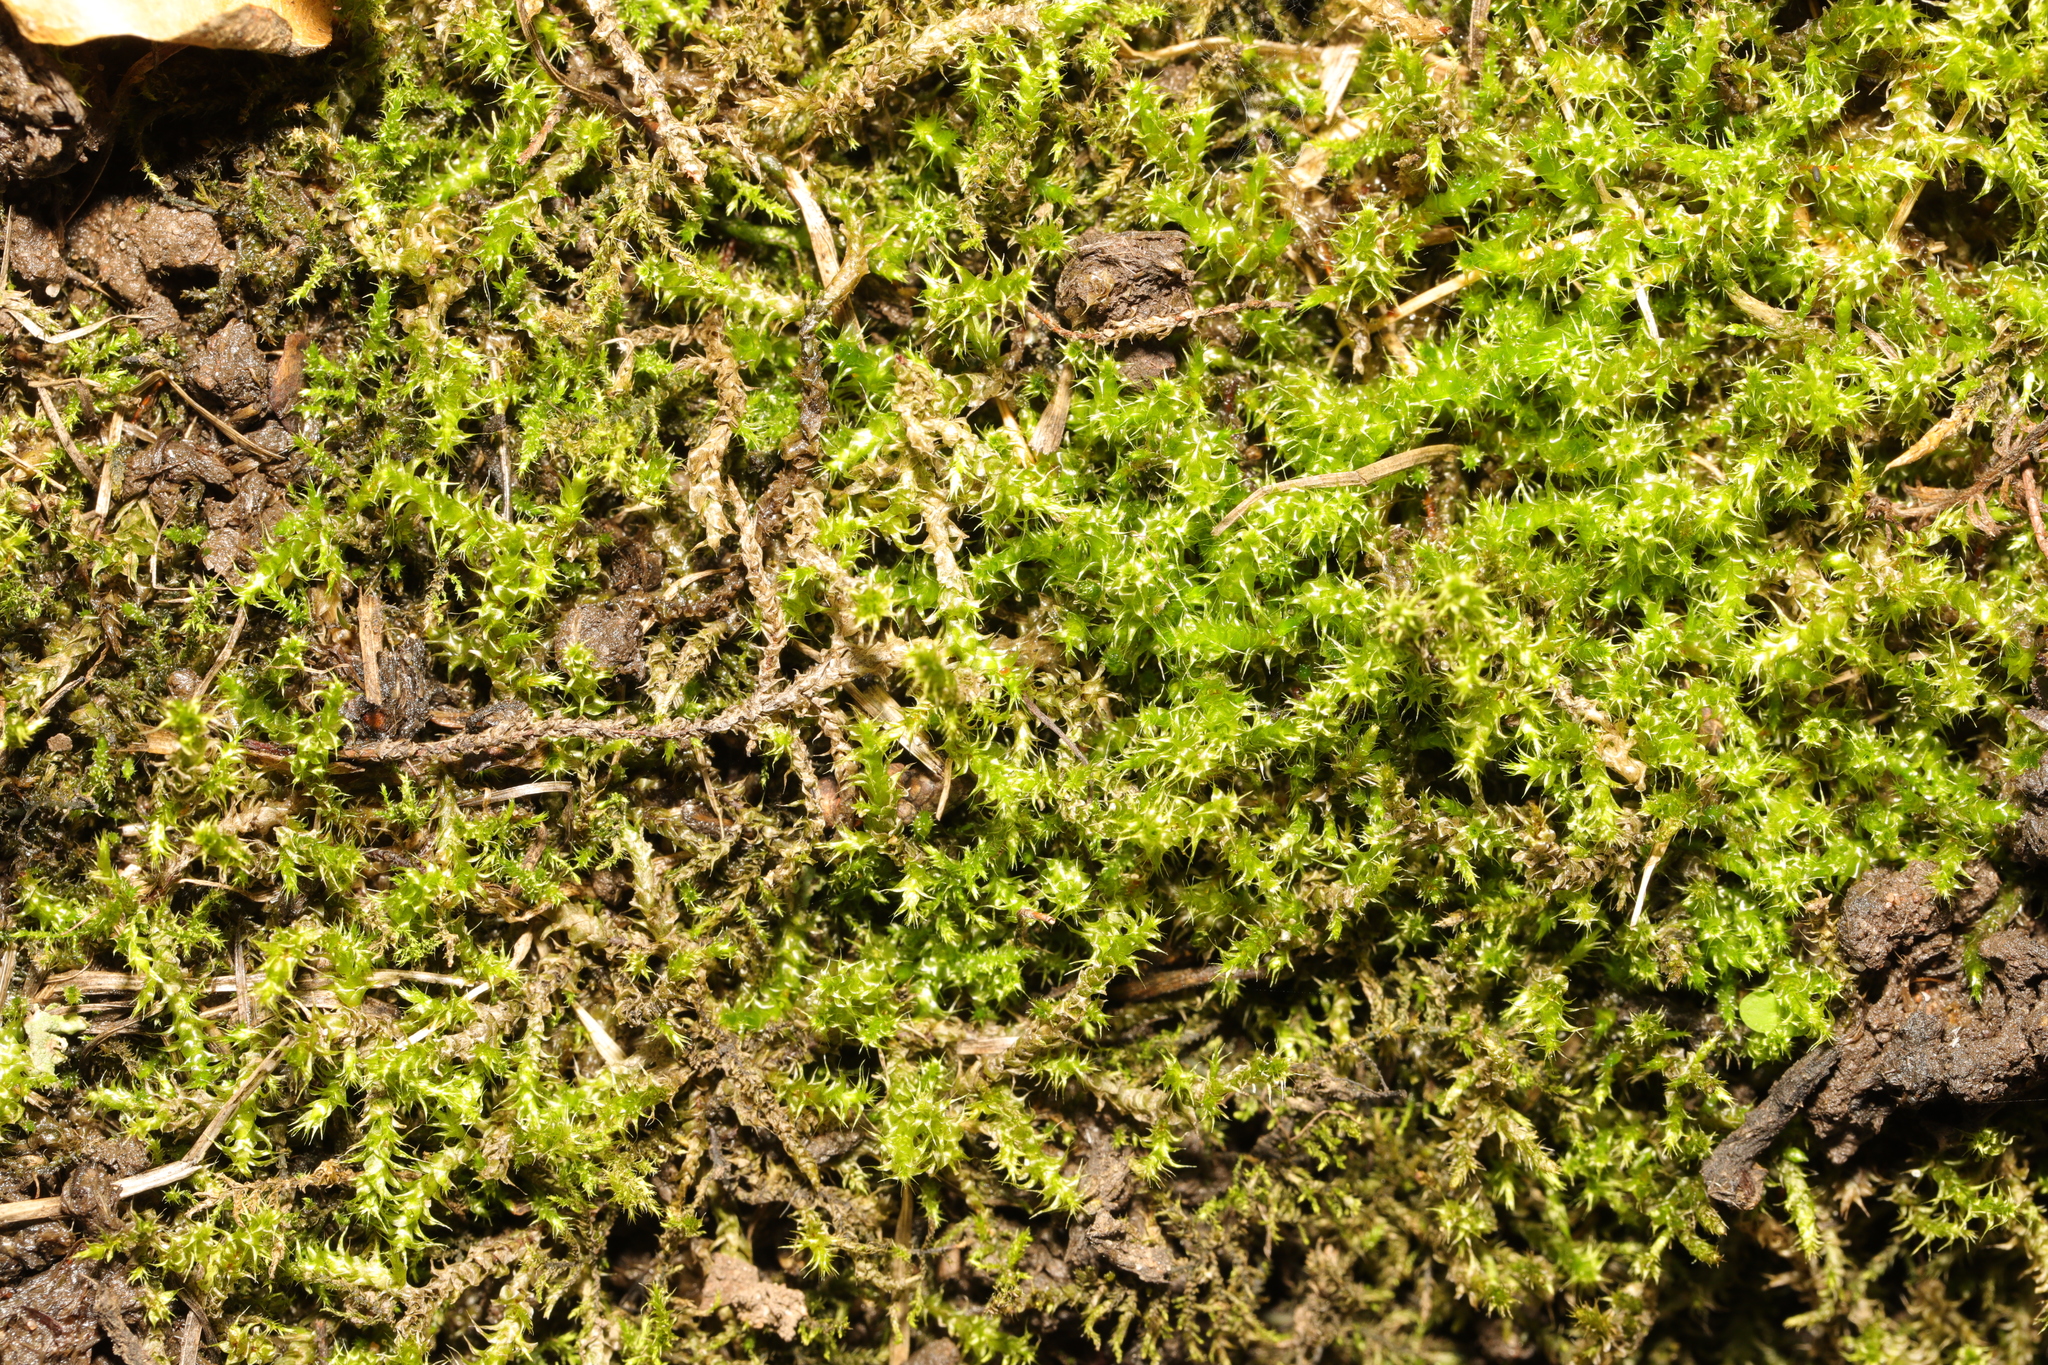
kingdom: Plantae
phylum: Bryophyta
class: Bryopsida
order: Hypnales
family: Hylocomiaceae
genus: Rhytidiadelphus
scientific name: Rhytidiadelphus squarrosus
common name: Springy turf-moss
